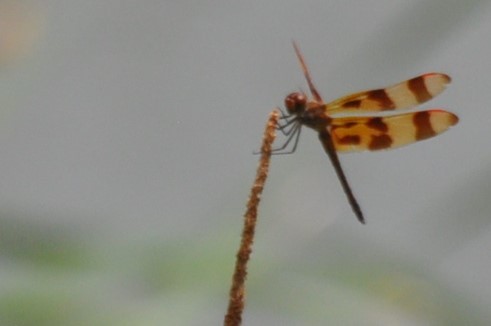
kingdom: Animalia
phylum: Arthropoda
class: Insecta
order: Odonata
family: Libellulidae
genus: Celithemis
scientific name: Celithemis eponina
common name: Halloween pennant
